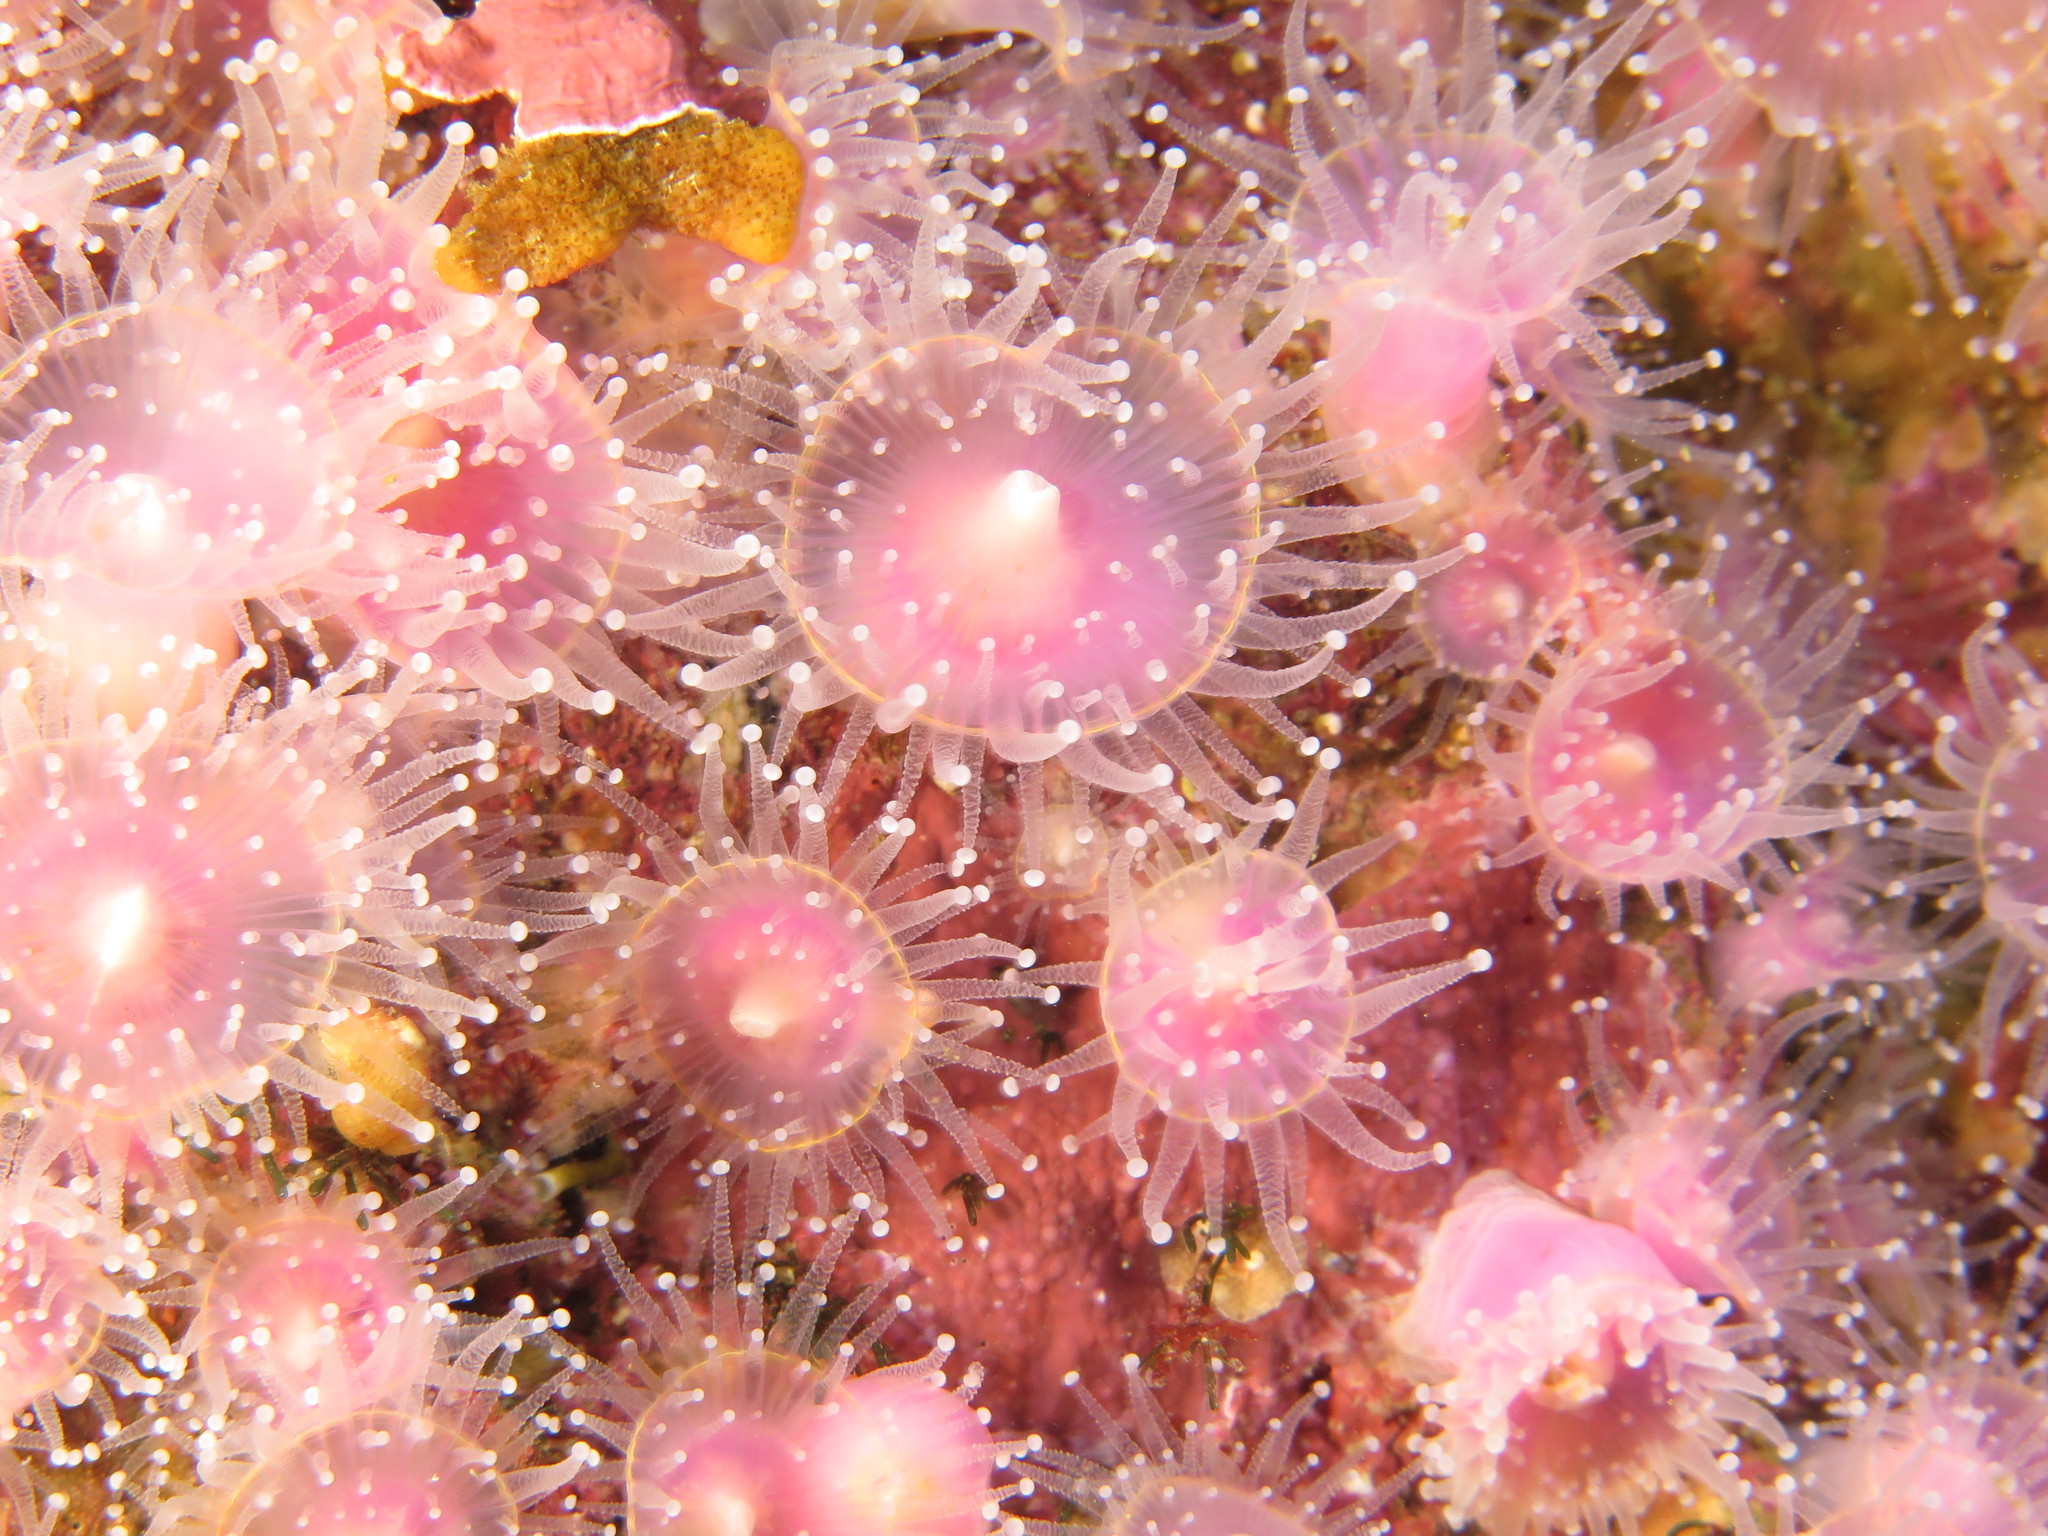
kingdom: Animalia
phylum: Cnidaria
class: Anthozoa
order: Corallimorpharia
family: Corallimorphidae
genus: Corynactis
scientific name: Corynactis annulata
